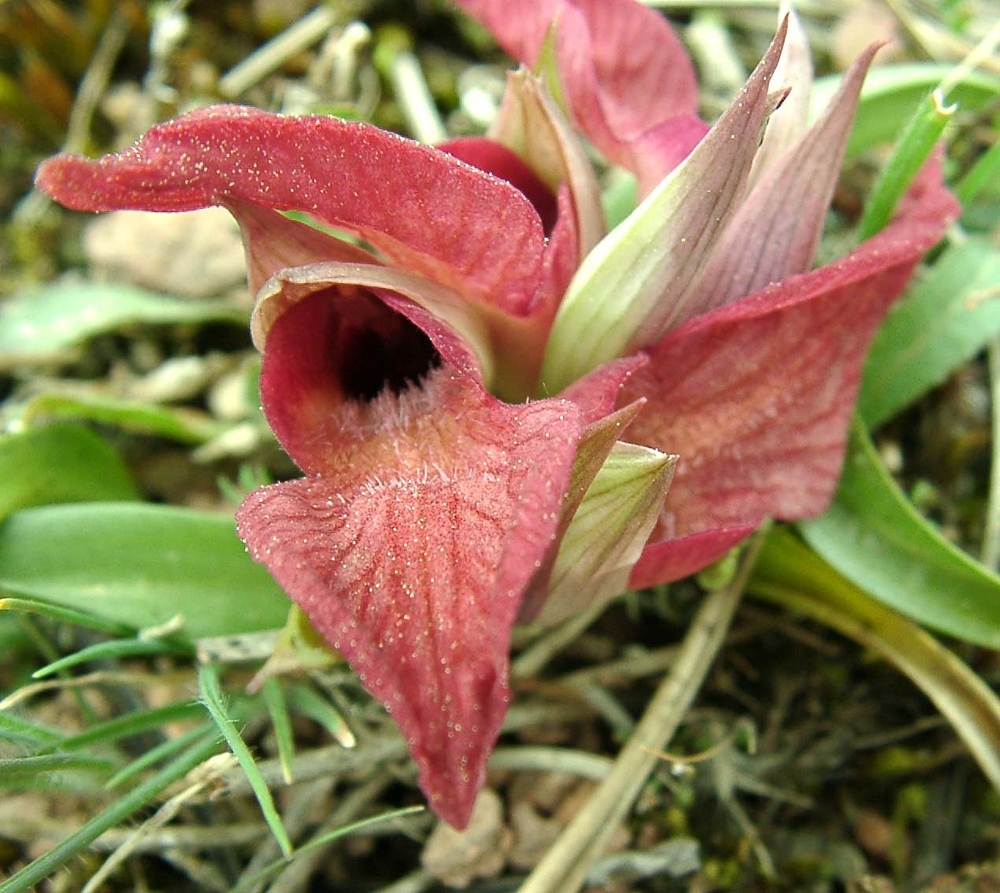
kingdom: Plantae
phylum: Tracheophyta
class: Liliopsida
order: Asparagales
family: Orchidaceae
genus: Serapias
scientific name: Serapias neglecta
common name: Neglected serapias
